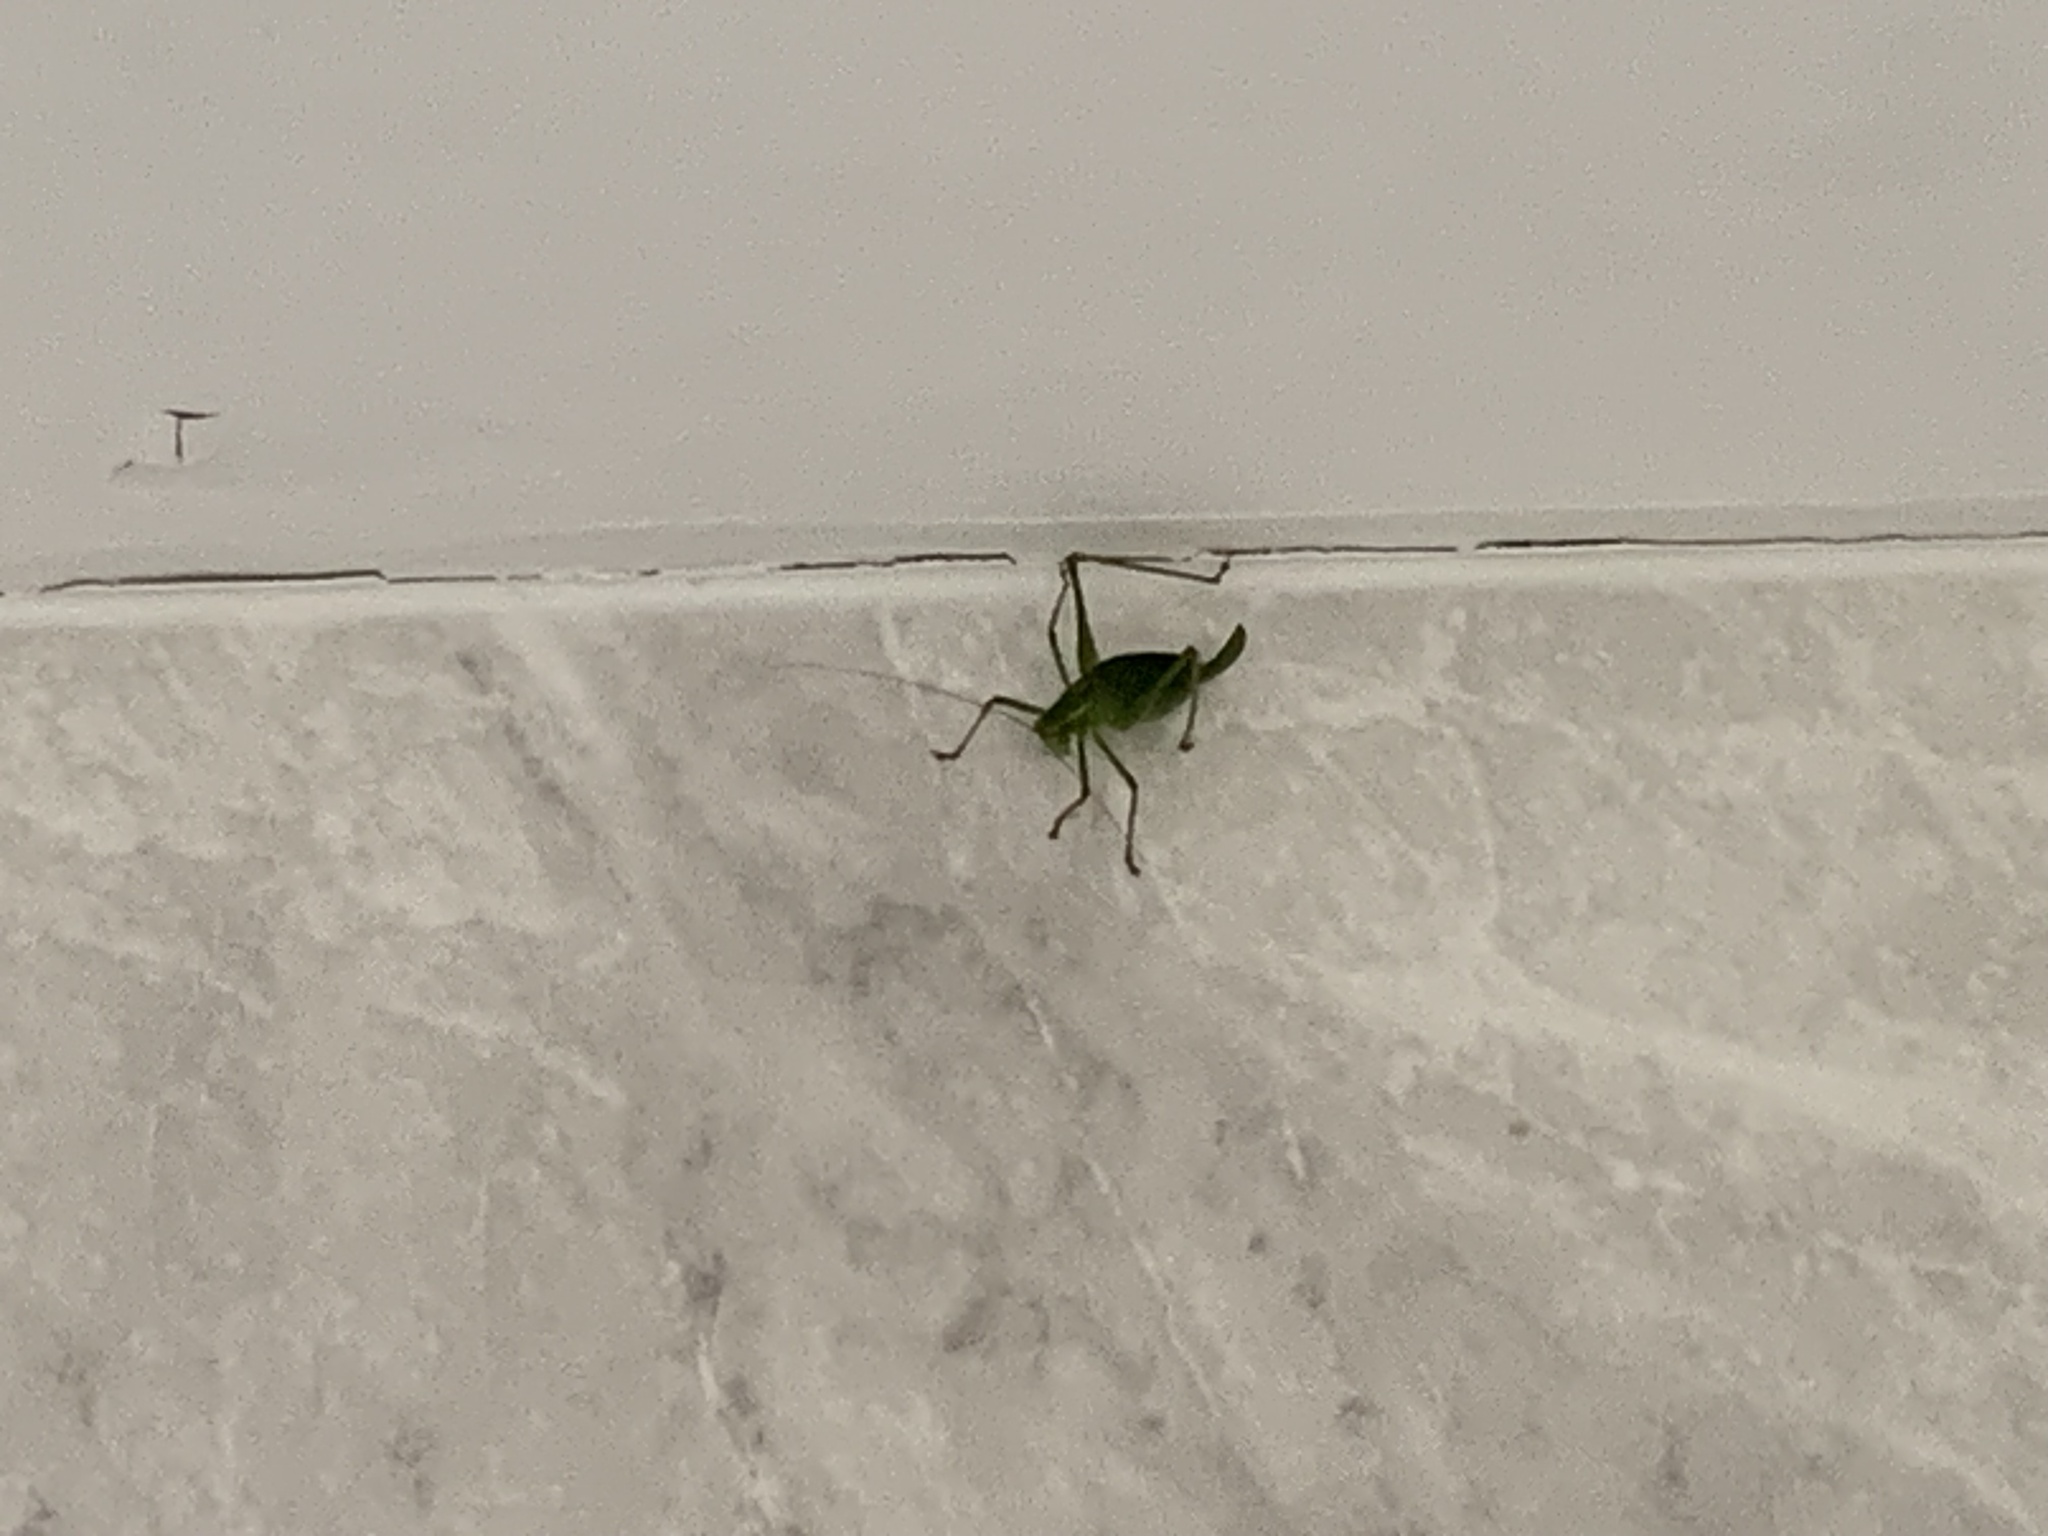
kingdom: Animalia
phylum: Arthropoda
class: Insecta
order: Orthoptera
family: Tettigoniidae
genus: Leptophyes
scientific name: Leptophyes punctatissima
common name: Speckled bush-cricket
